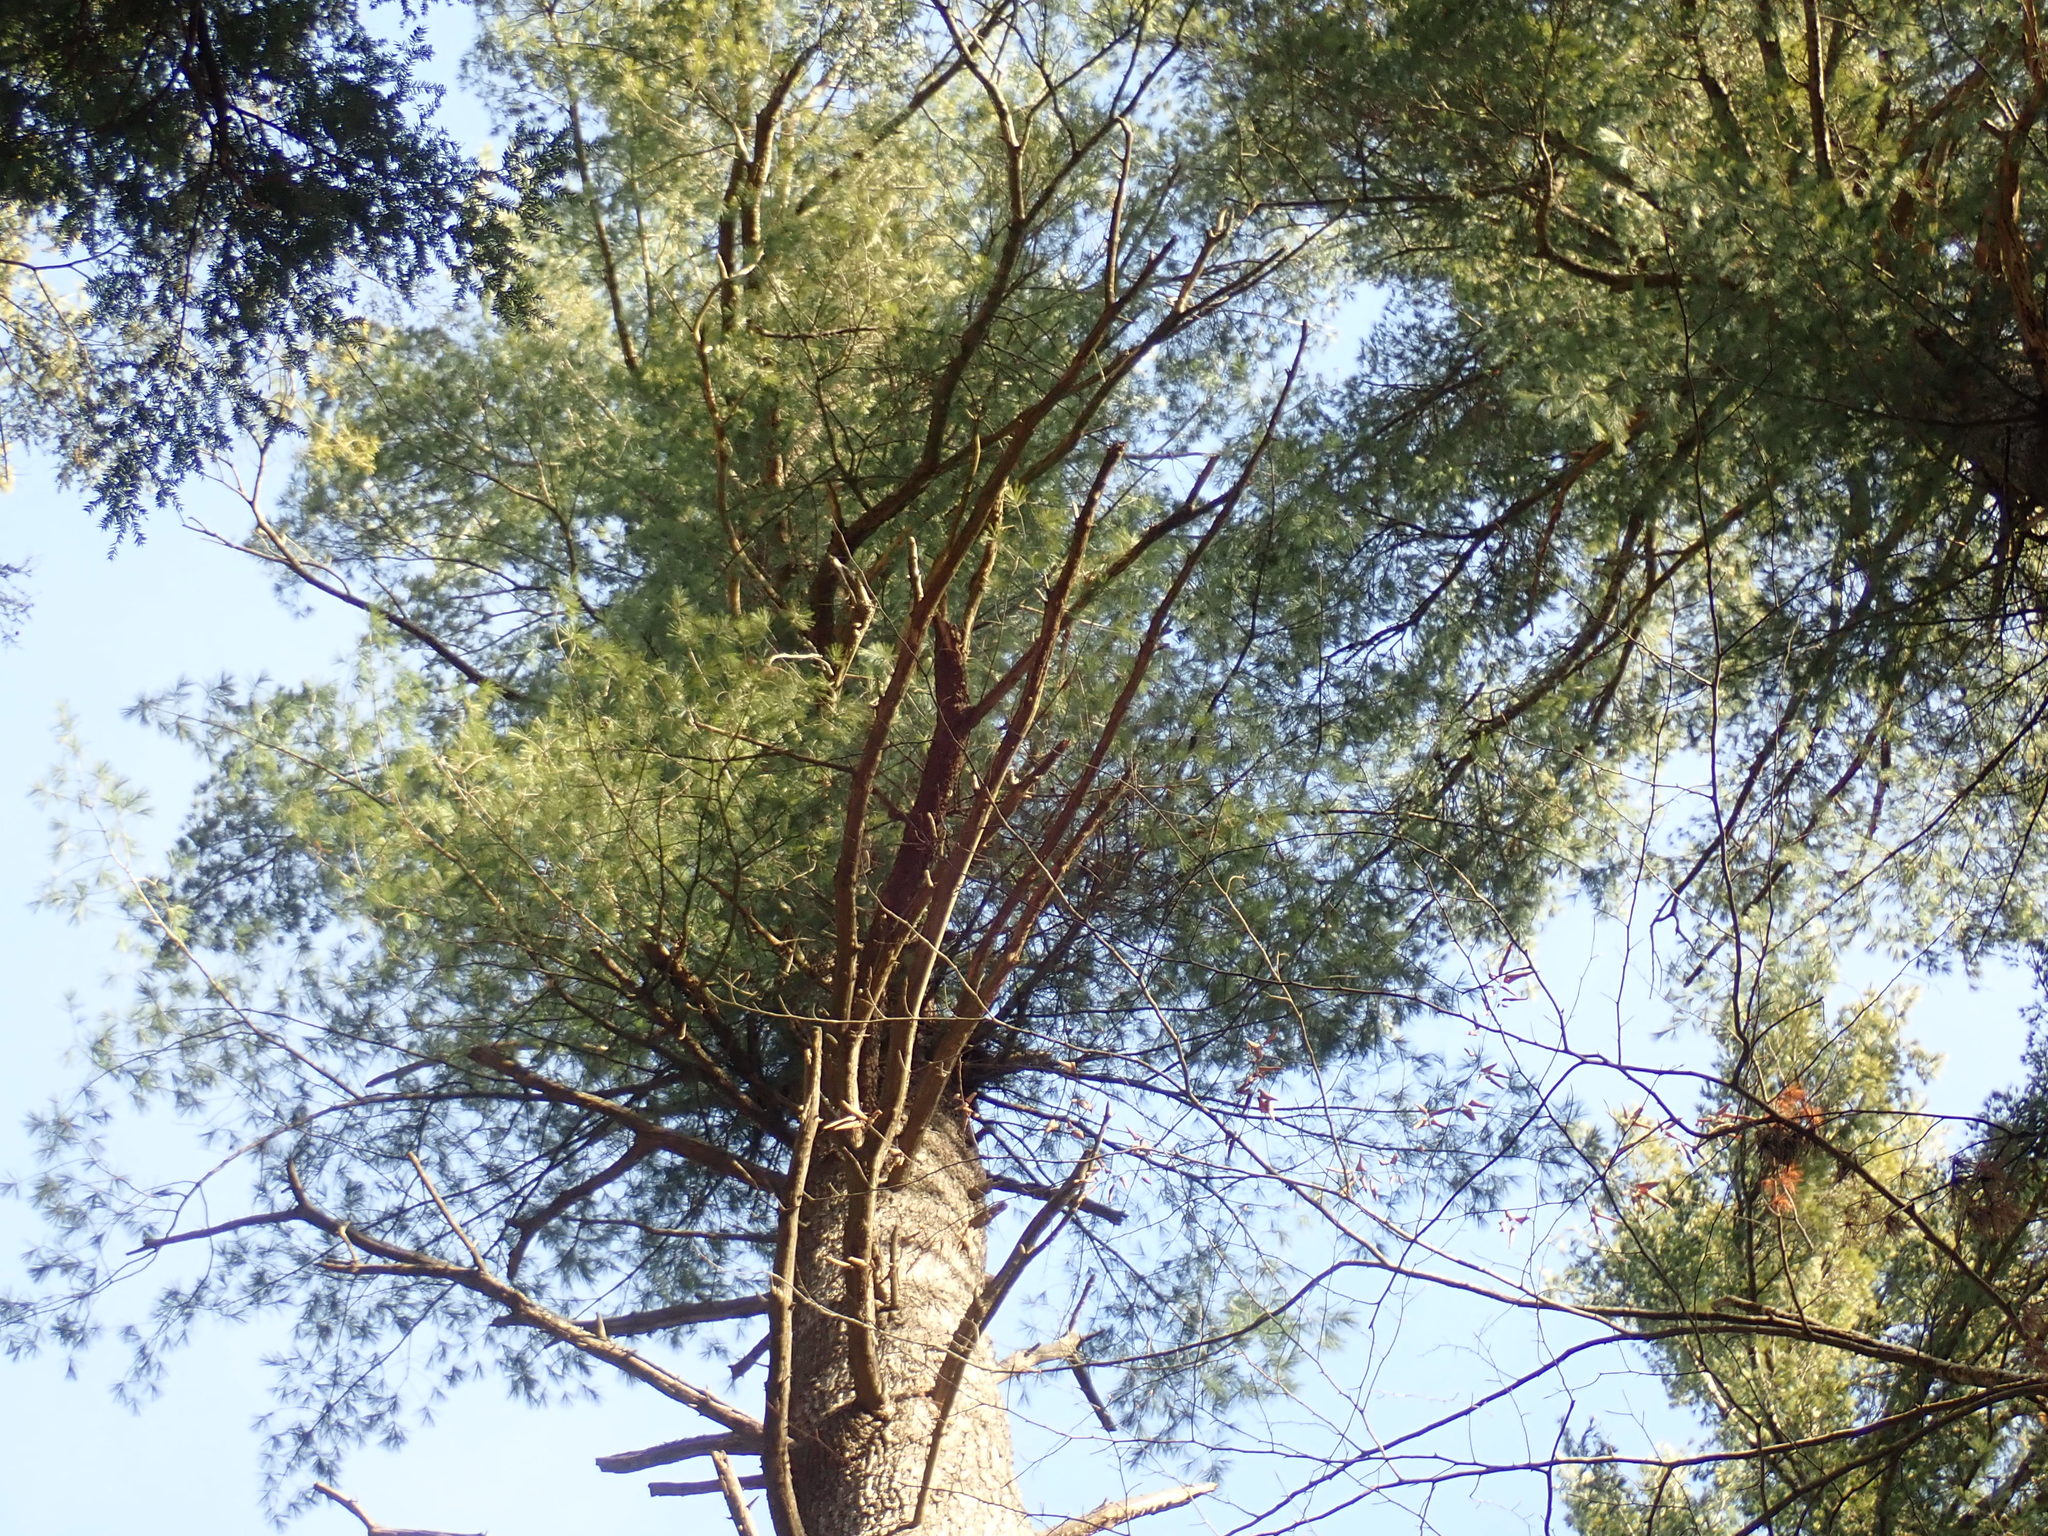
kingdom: Plantae
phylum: Tracheophyta
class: Pinopsida
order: Pinales
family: Pinaceae
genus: Pinus
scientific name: Pinus strobus
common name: Weymouth pine
